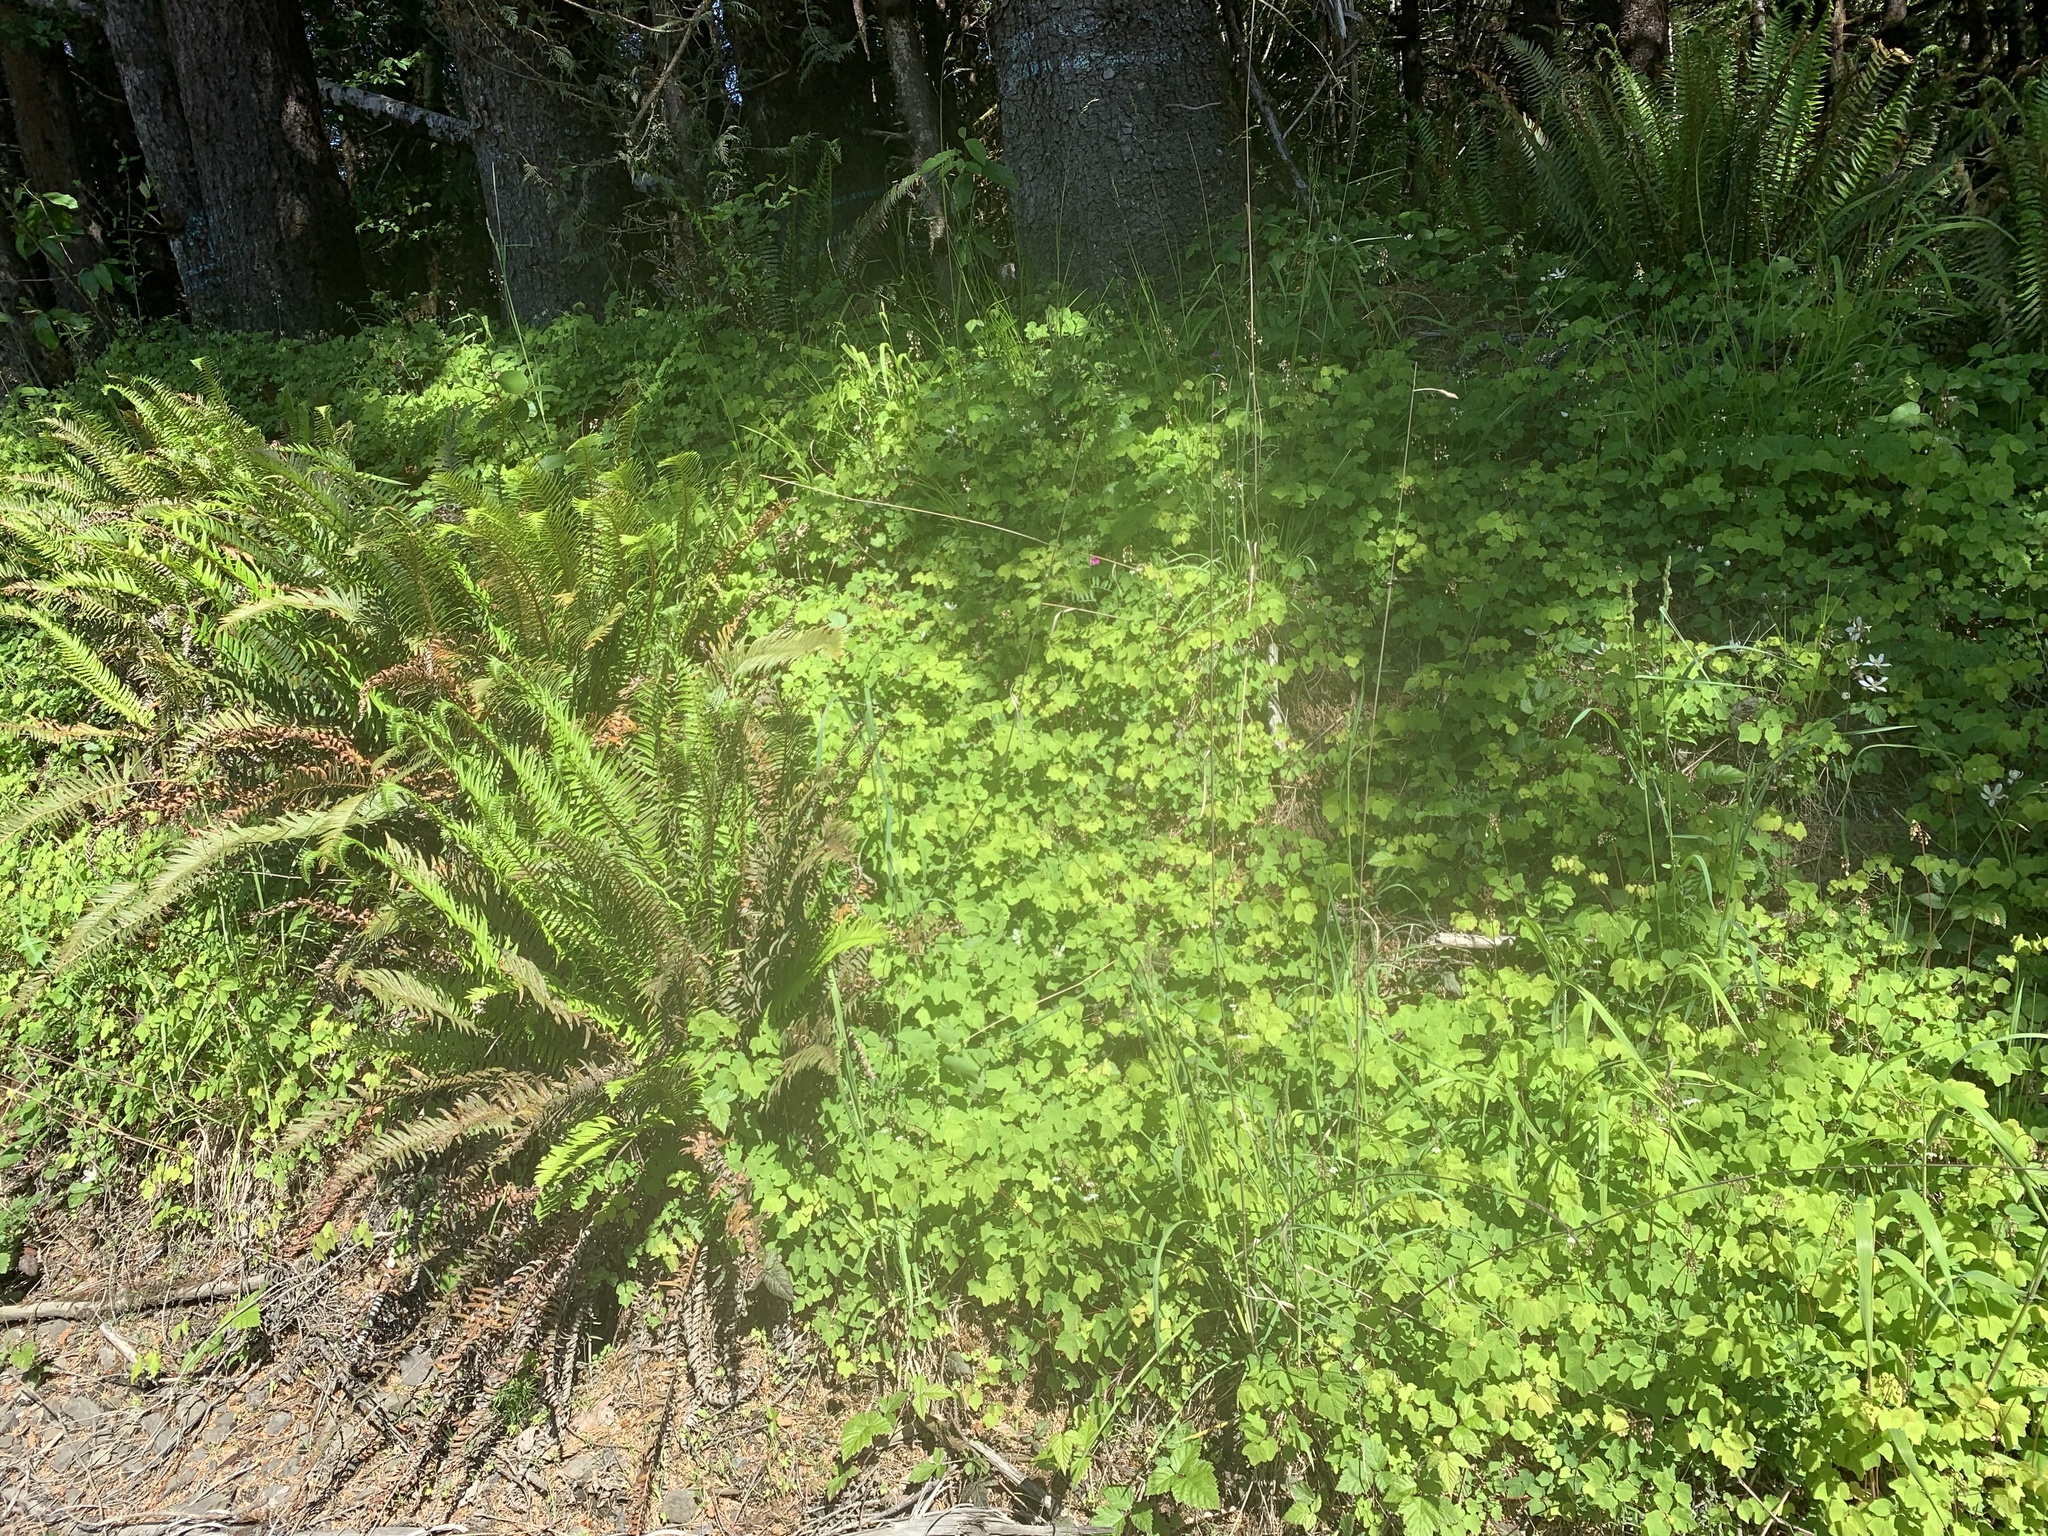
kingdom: Plantae
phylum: Tracheophyta
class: Magnoliopsida
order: Ranunculales
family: Berberidaceae
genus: Vancouveria
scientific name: Vancouveria hexandra
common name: Northern inside-out-flower
